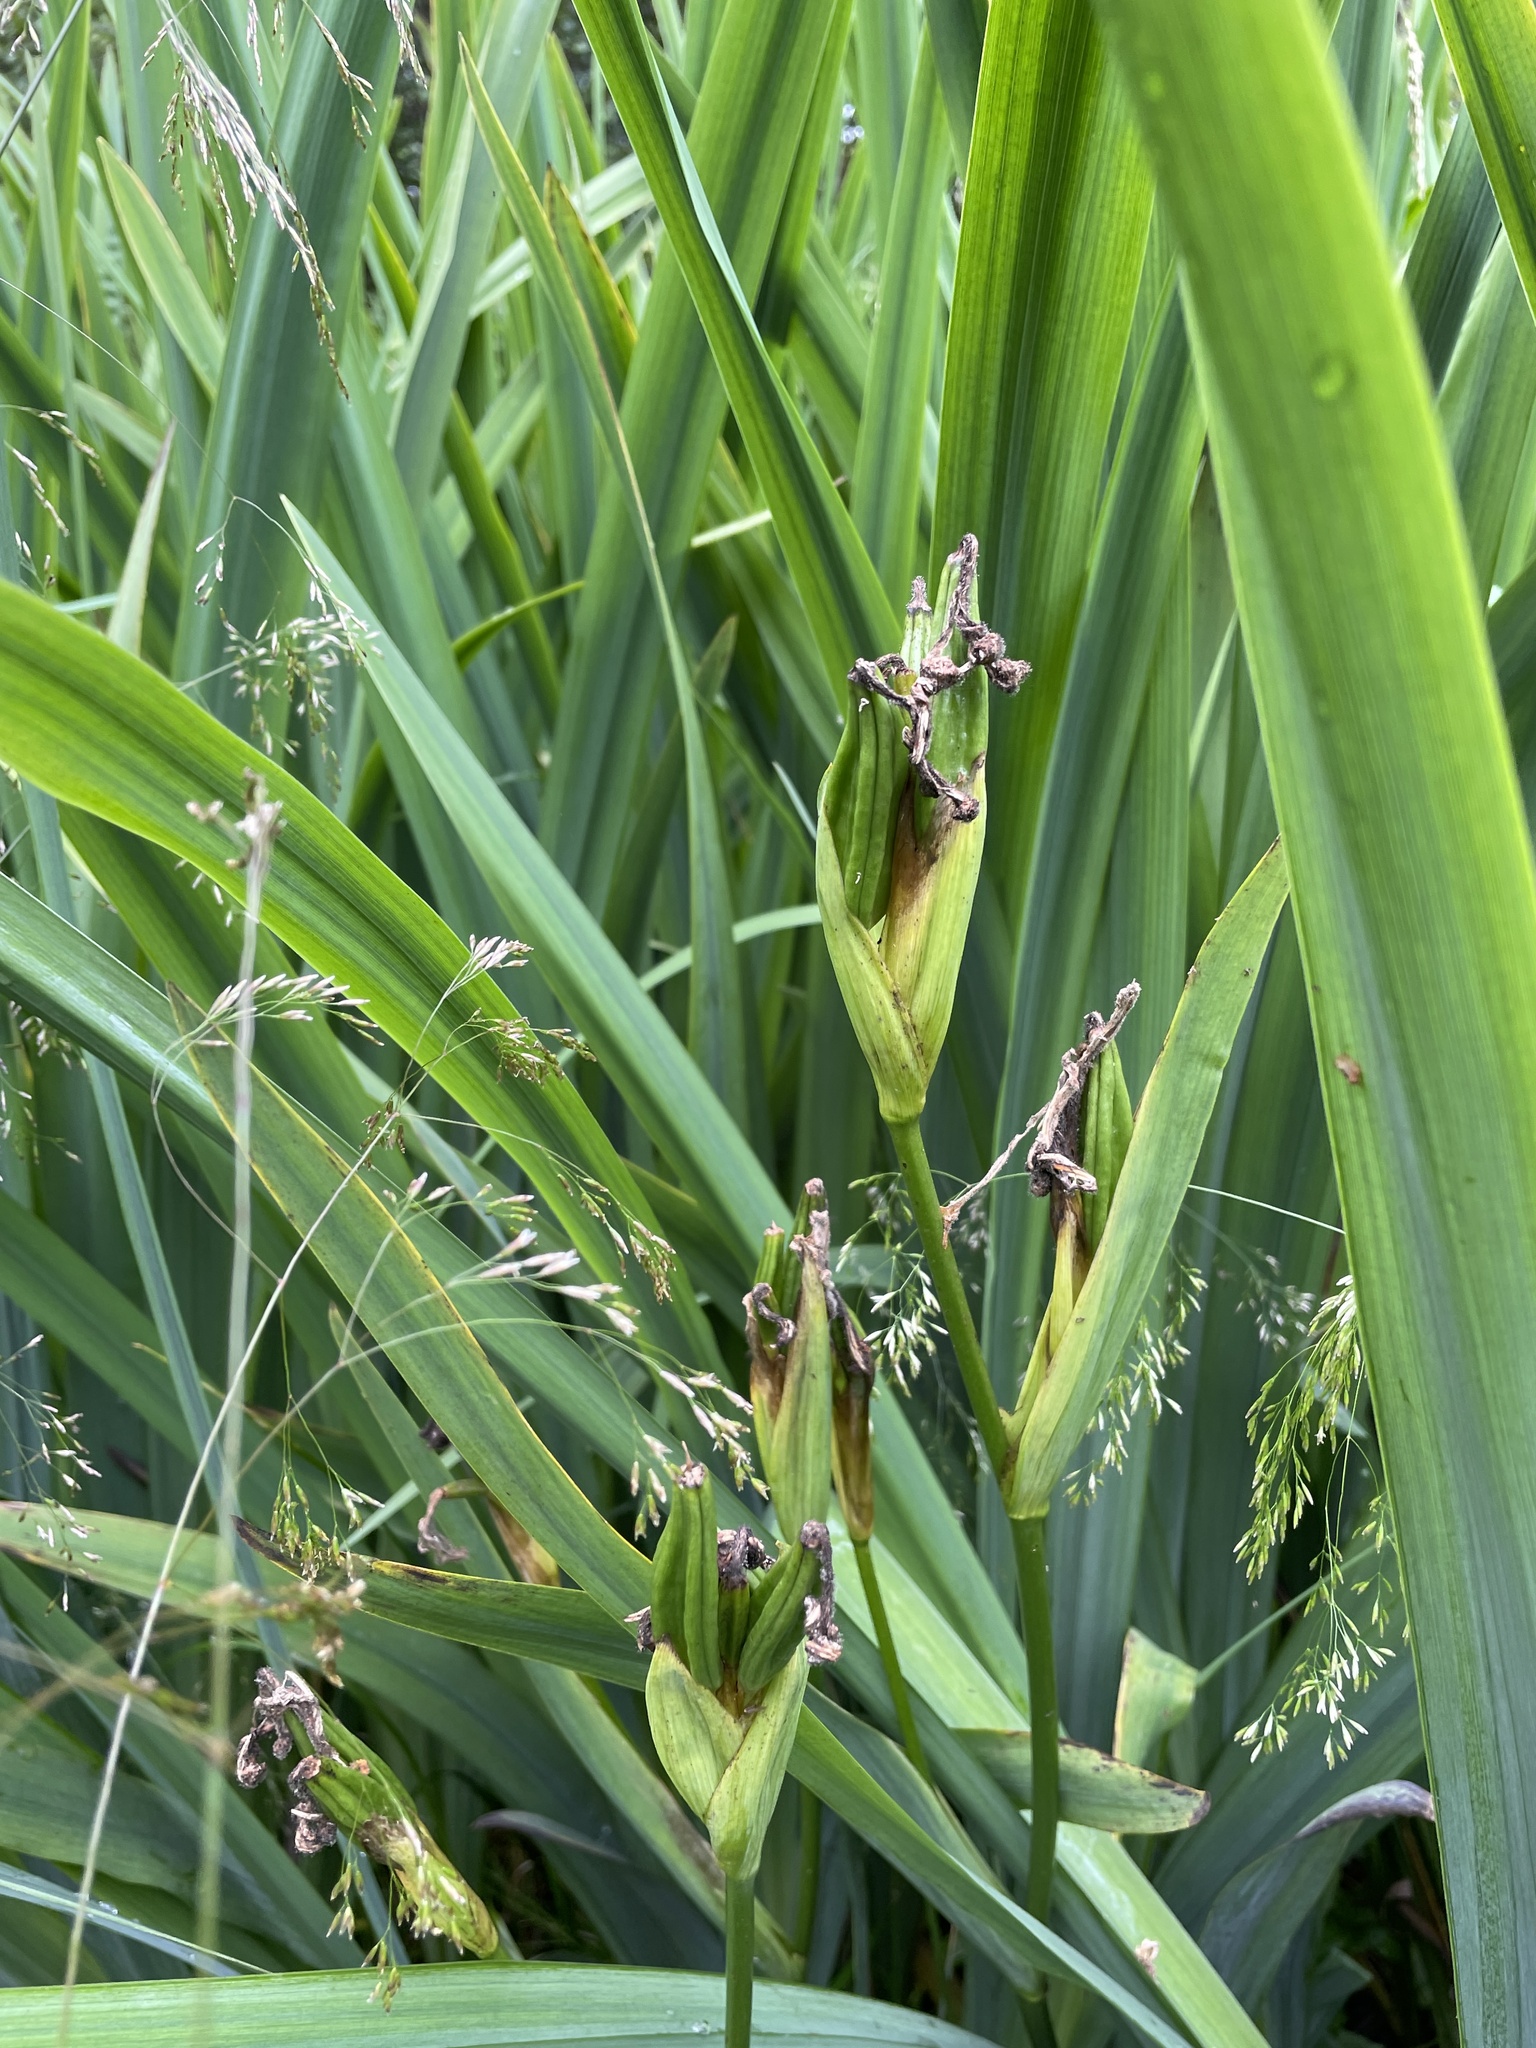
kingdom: Plantae
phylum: Tracheophyta
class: Liliopsida
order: Asparagales
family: Iridaceae
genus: Iris
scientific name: Iris pseudacorus
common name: Yellow flag
